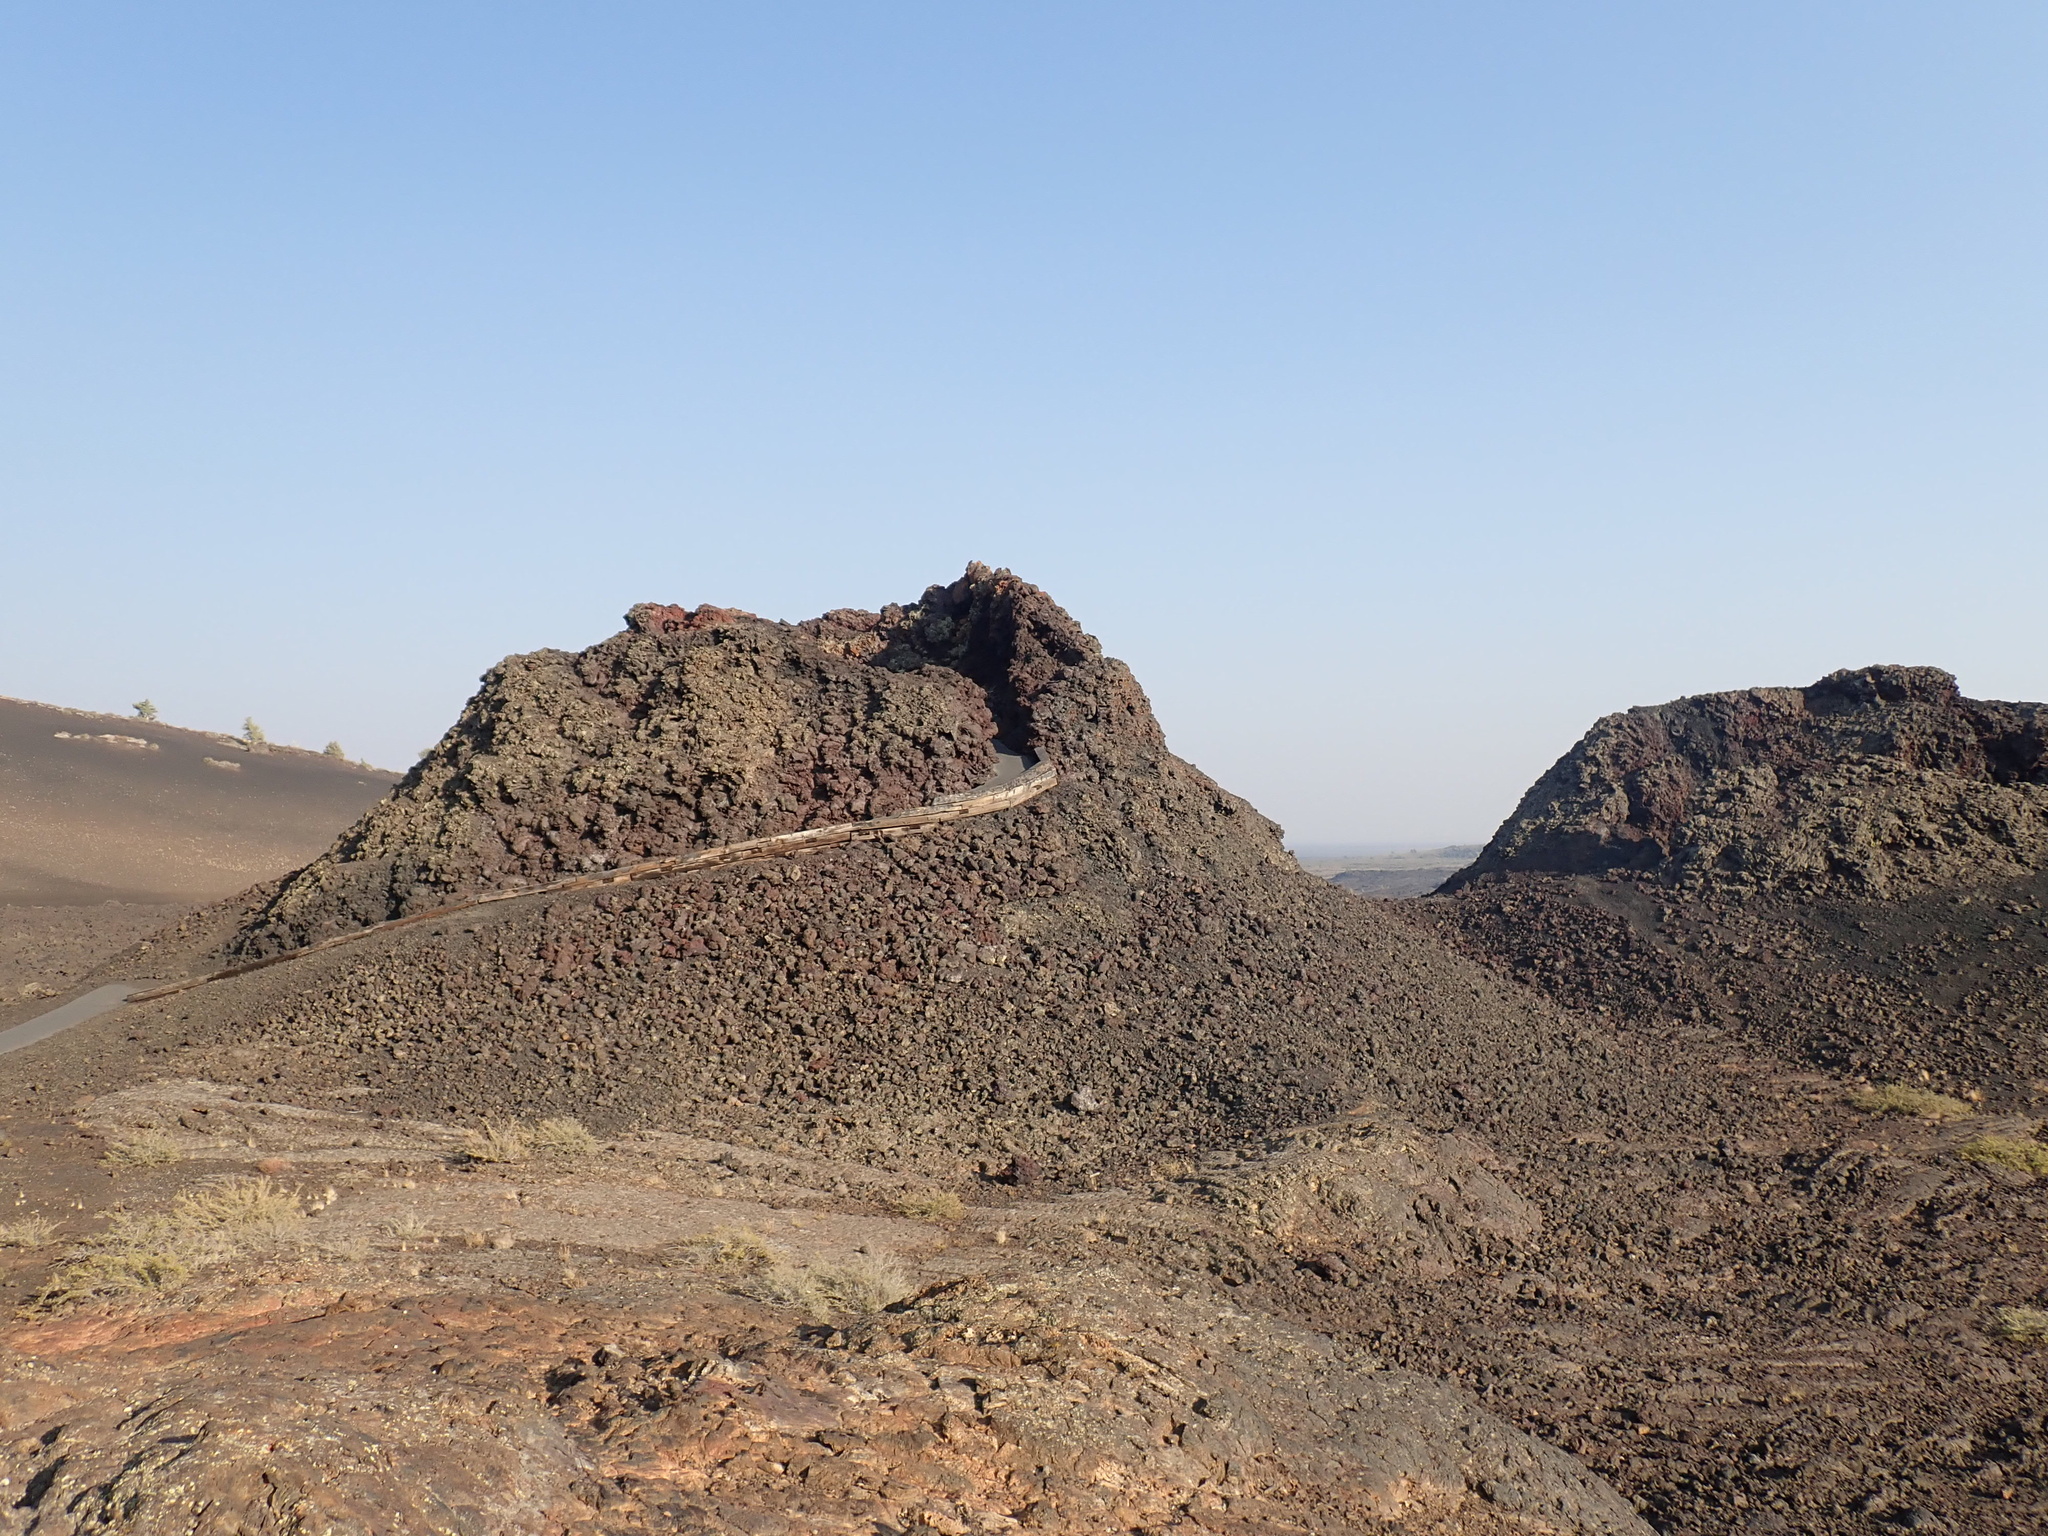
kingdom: Fungi
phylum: Ascomycota
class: Lecanoromycetes
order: Lecanorales
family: Lecanoraceae
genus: Rhizoplaca
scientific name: Rhizoplaca melanophthalma
